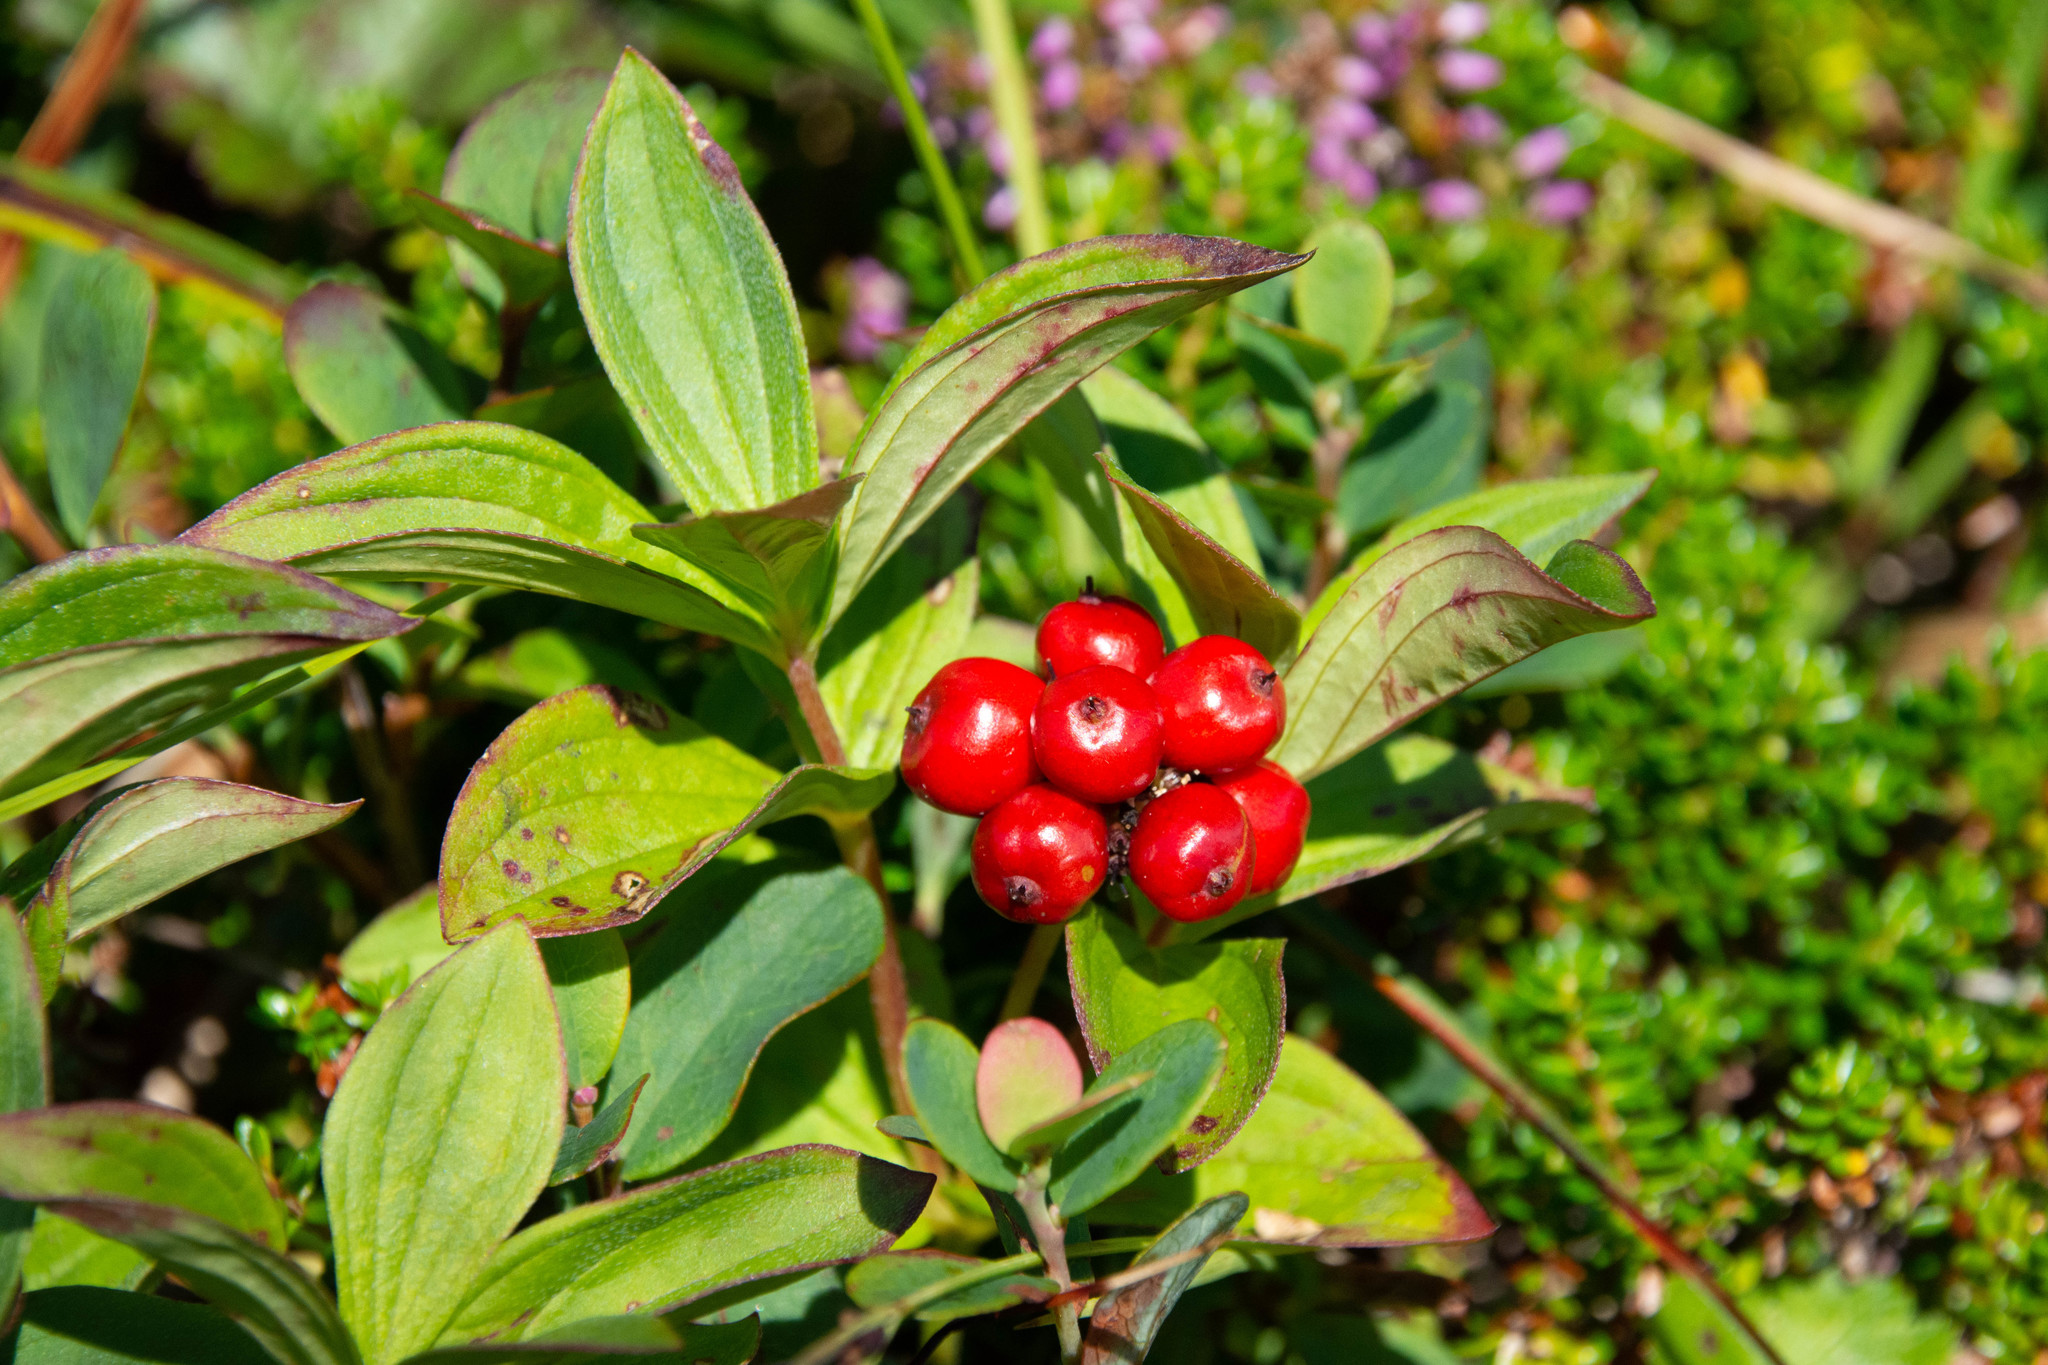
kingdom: Plantae
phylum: Tracheophyta
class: Magnoliopsida
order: Cornales
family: Cornaceae
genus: Cornus
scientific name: Cornus suecica
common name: Dwarf cornel
